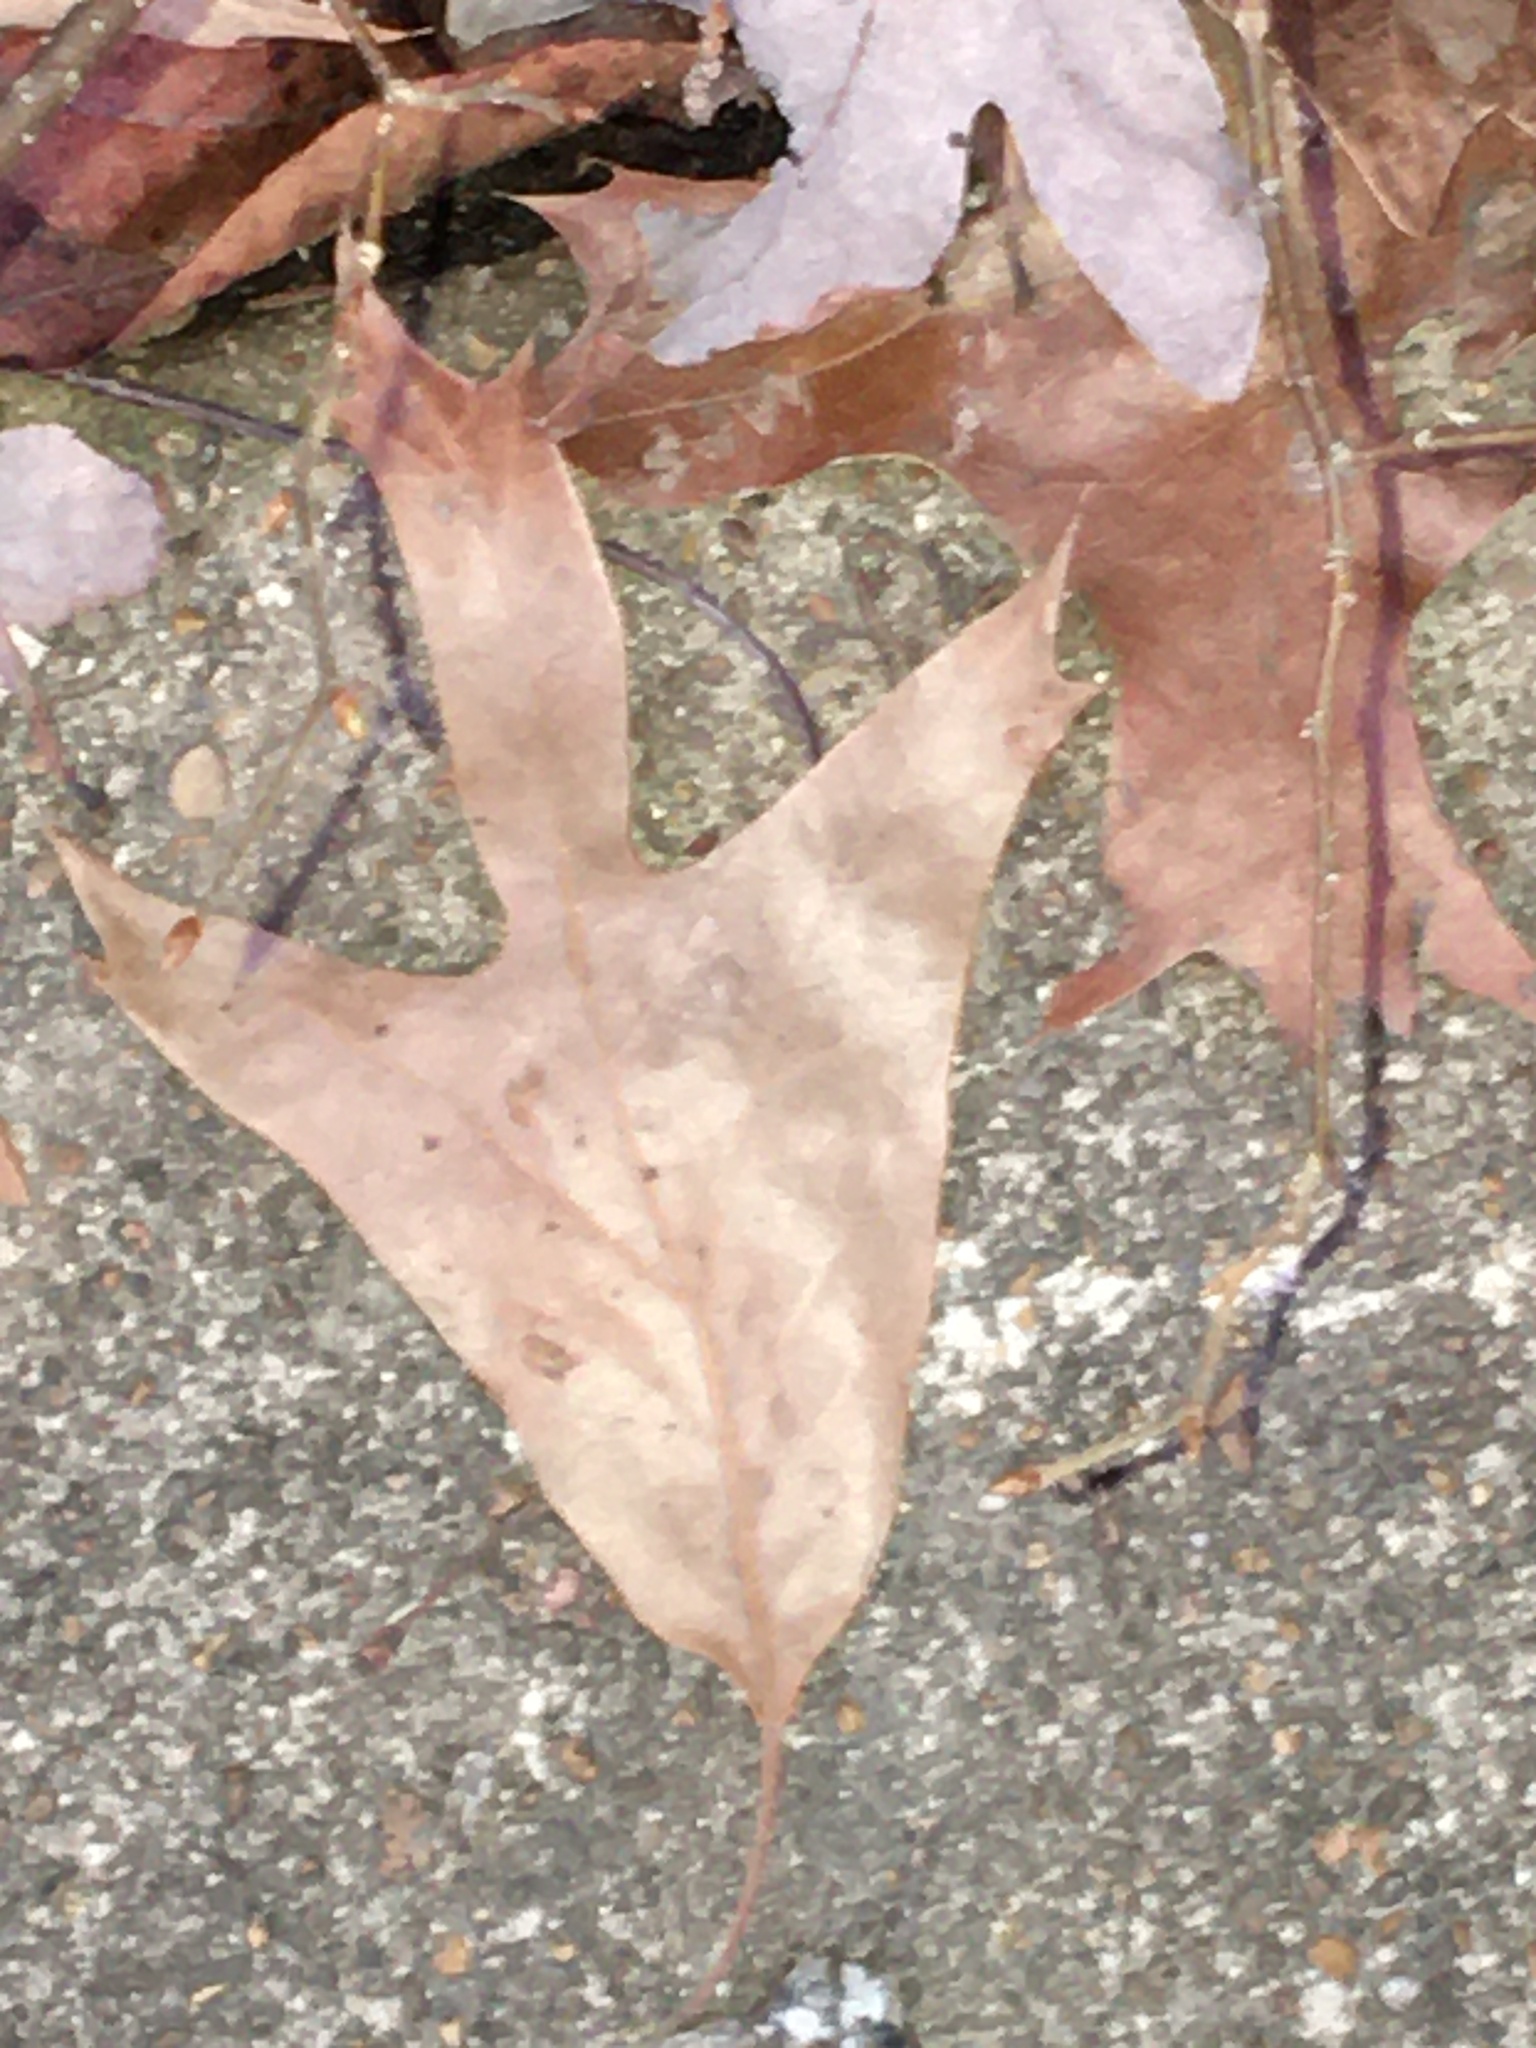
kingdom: Plantae
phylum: Tracheophyta
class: Magnoliopsida
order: Fagales
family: Fagaceae
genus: Quercus
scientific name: Quercus falcata
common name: Southern red oak
